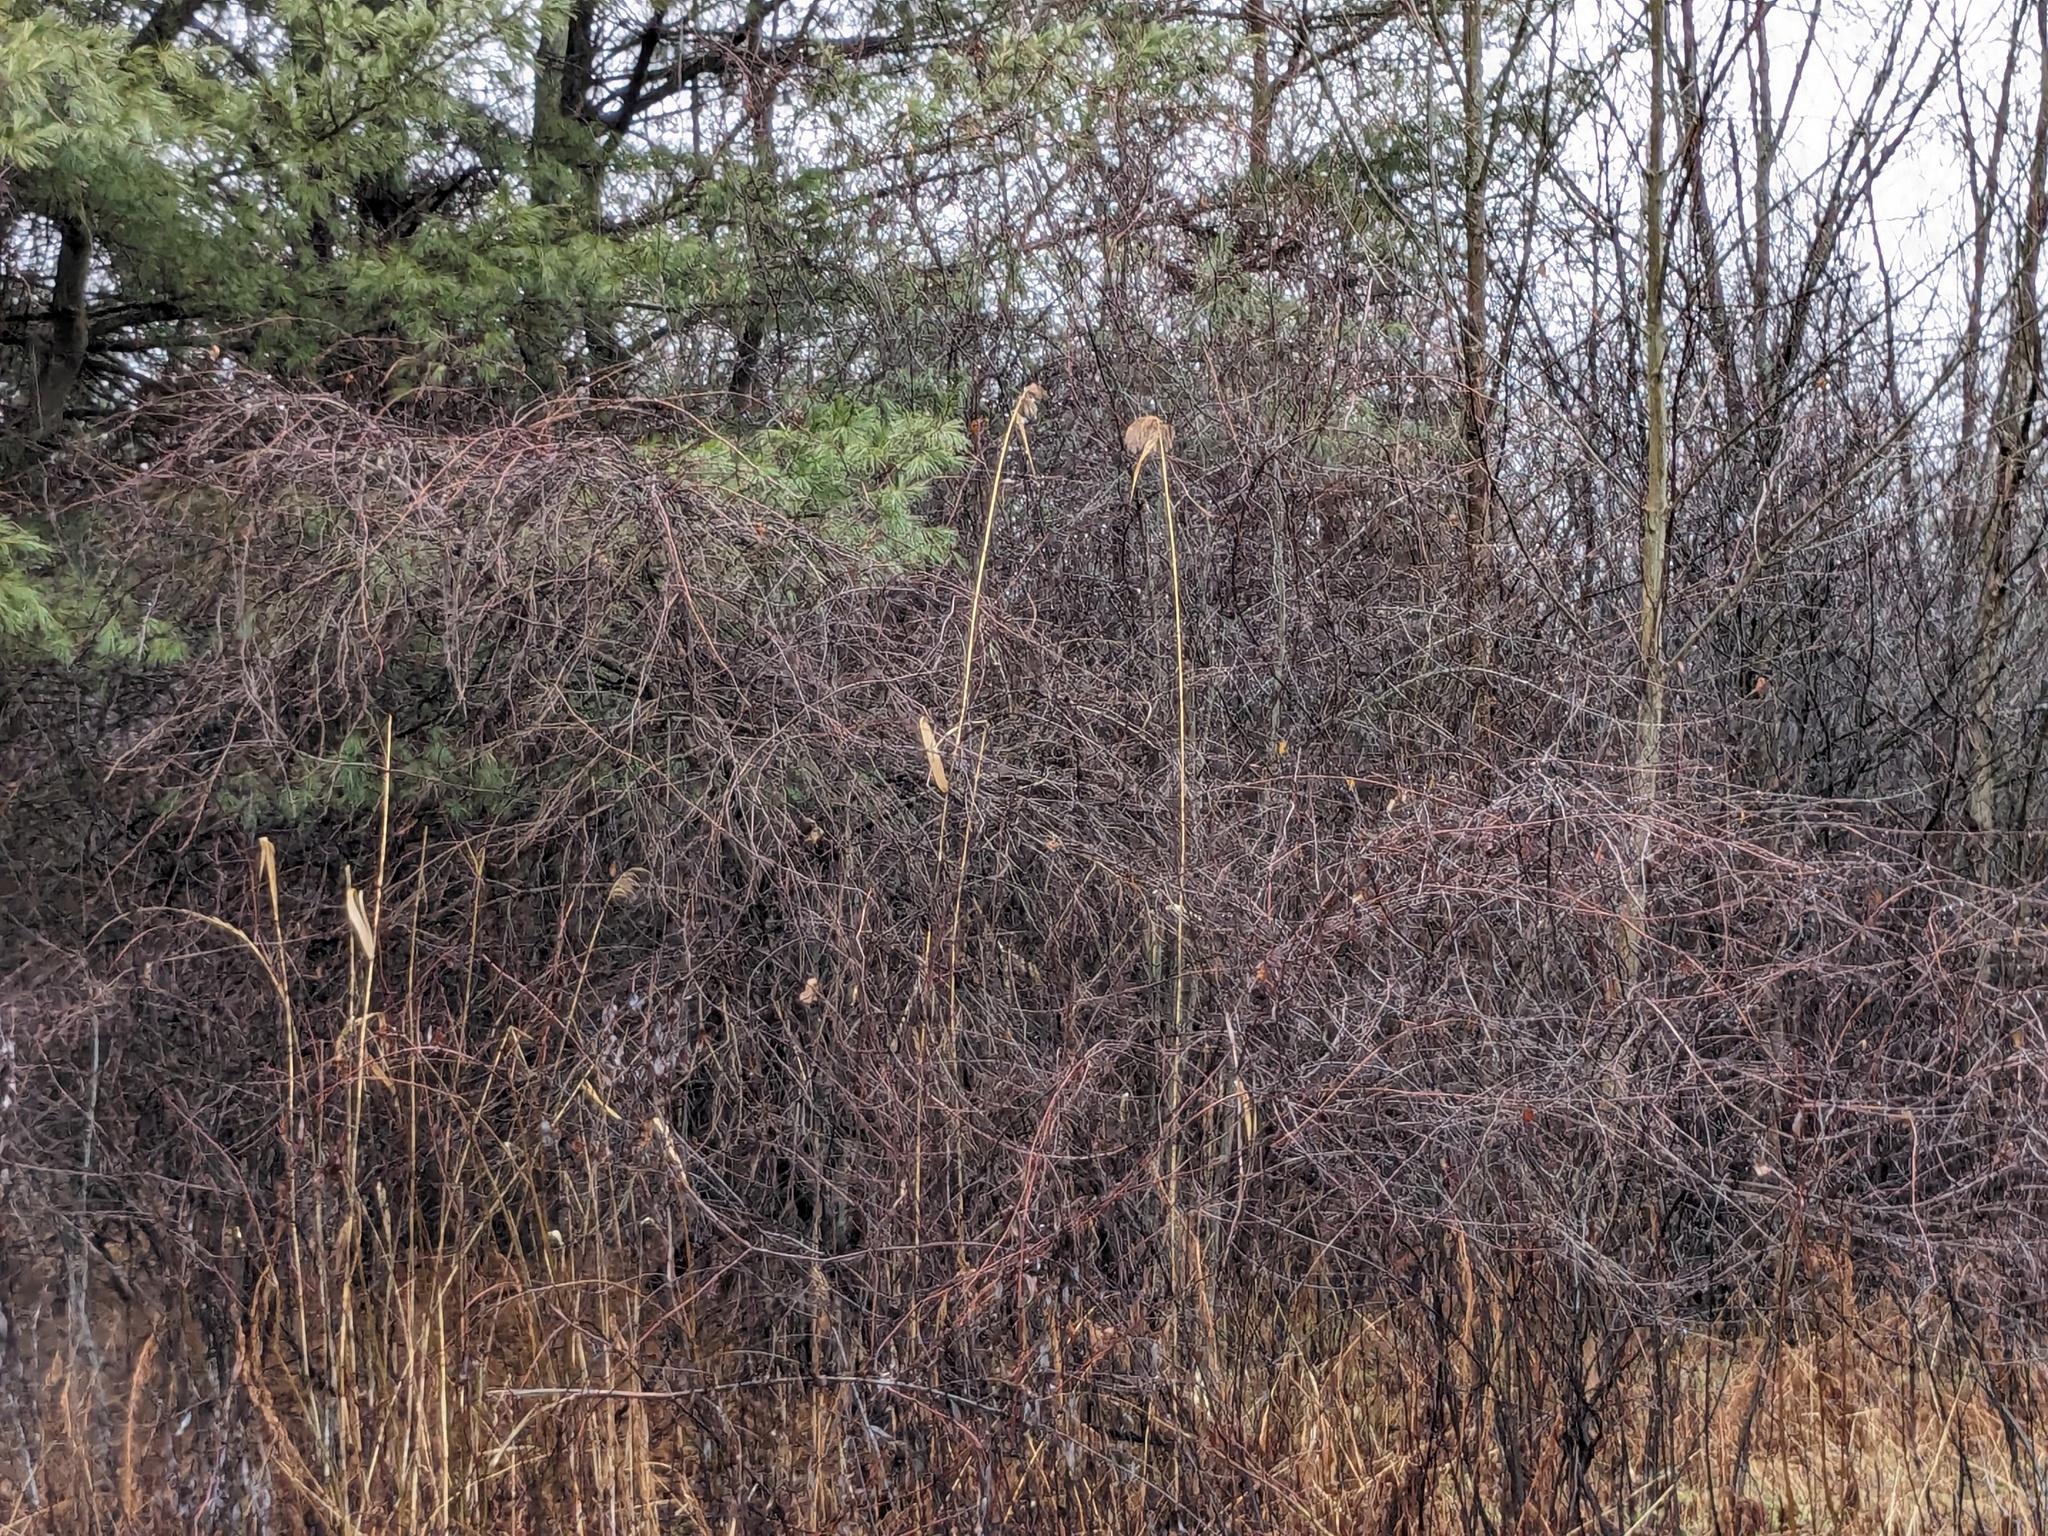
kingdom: Plantae
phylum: Tracheophyta
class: Liliopsida
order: Poales
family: Poaceae
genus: Phragmites
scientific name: Phragmites australis
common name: Common reed
